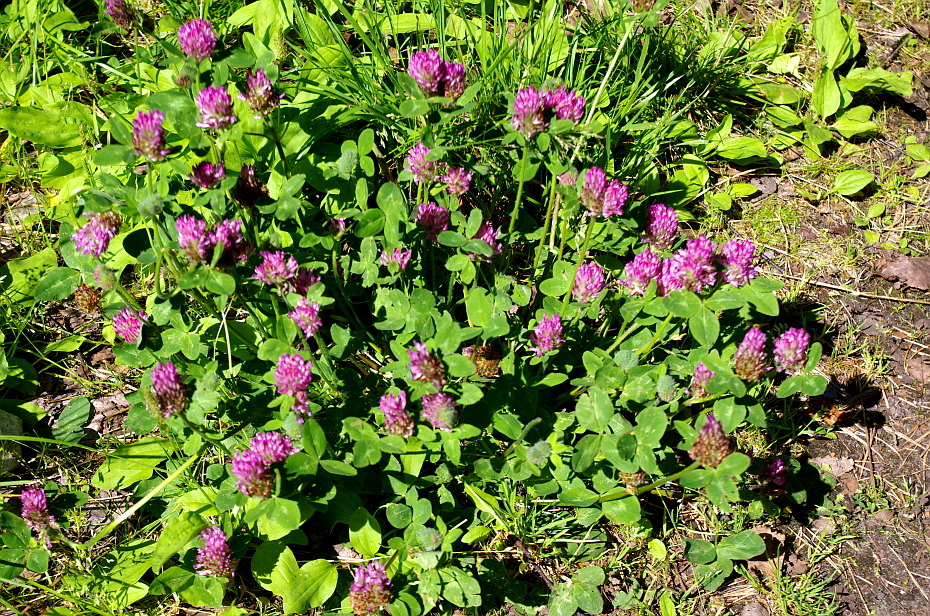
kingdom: Plantae
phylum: Tracheophyta
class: Magnoliopsida
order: Fabales
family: Fabaceae
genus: Trifolium
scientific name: Trifolium pratense
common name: Red clover
